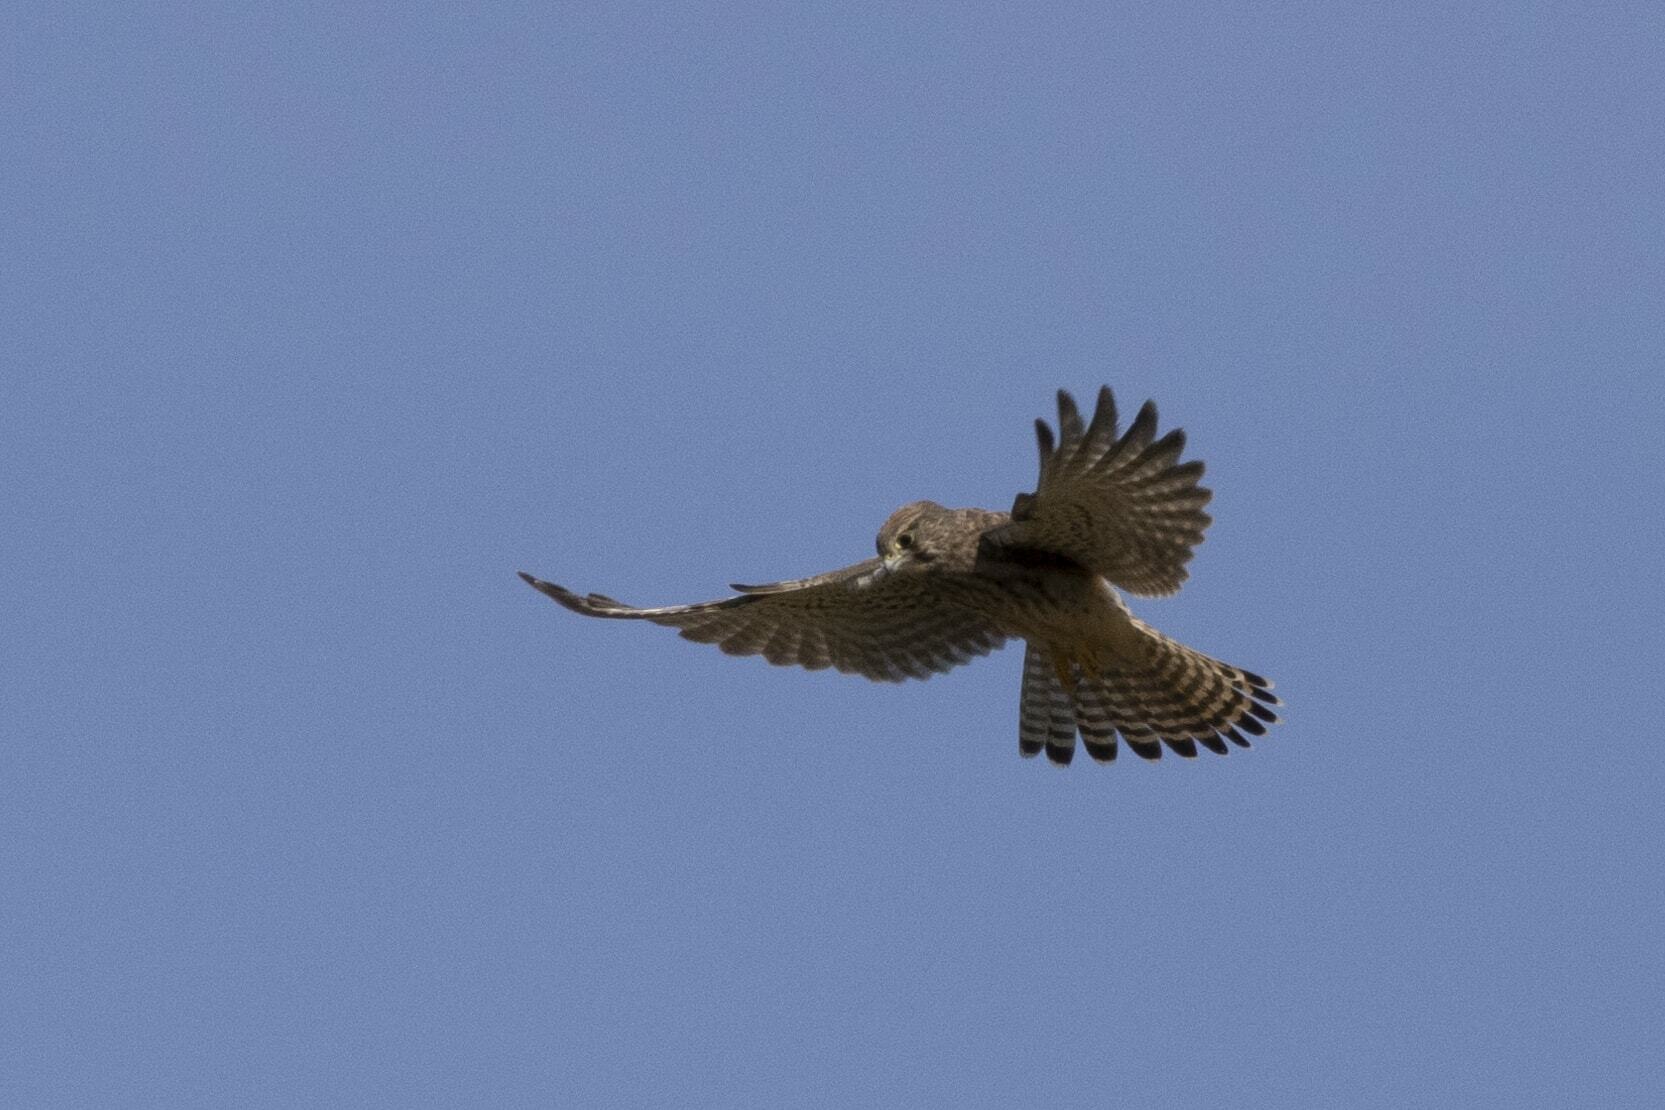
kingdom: Animalia
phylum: Chordata
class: Aves
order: Falconiformes
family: Falconidae
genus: Falco
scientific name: Falco tinnunculus
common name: Common kestrel
